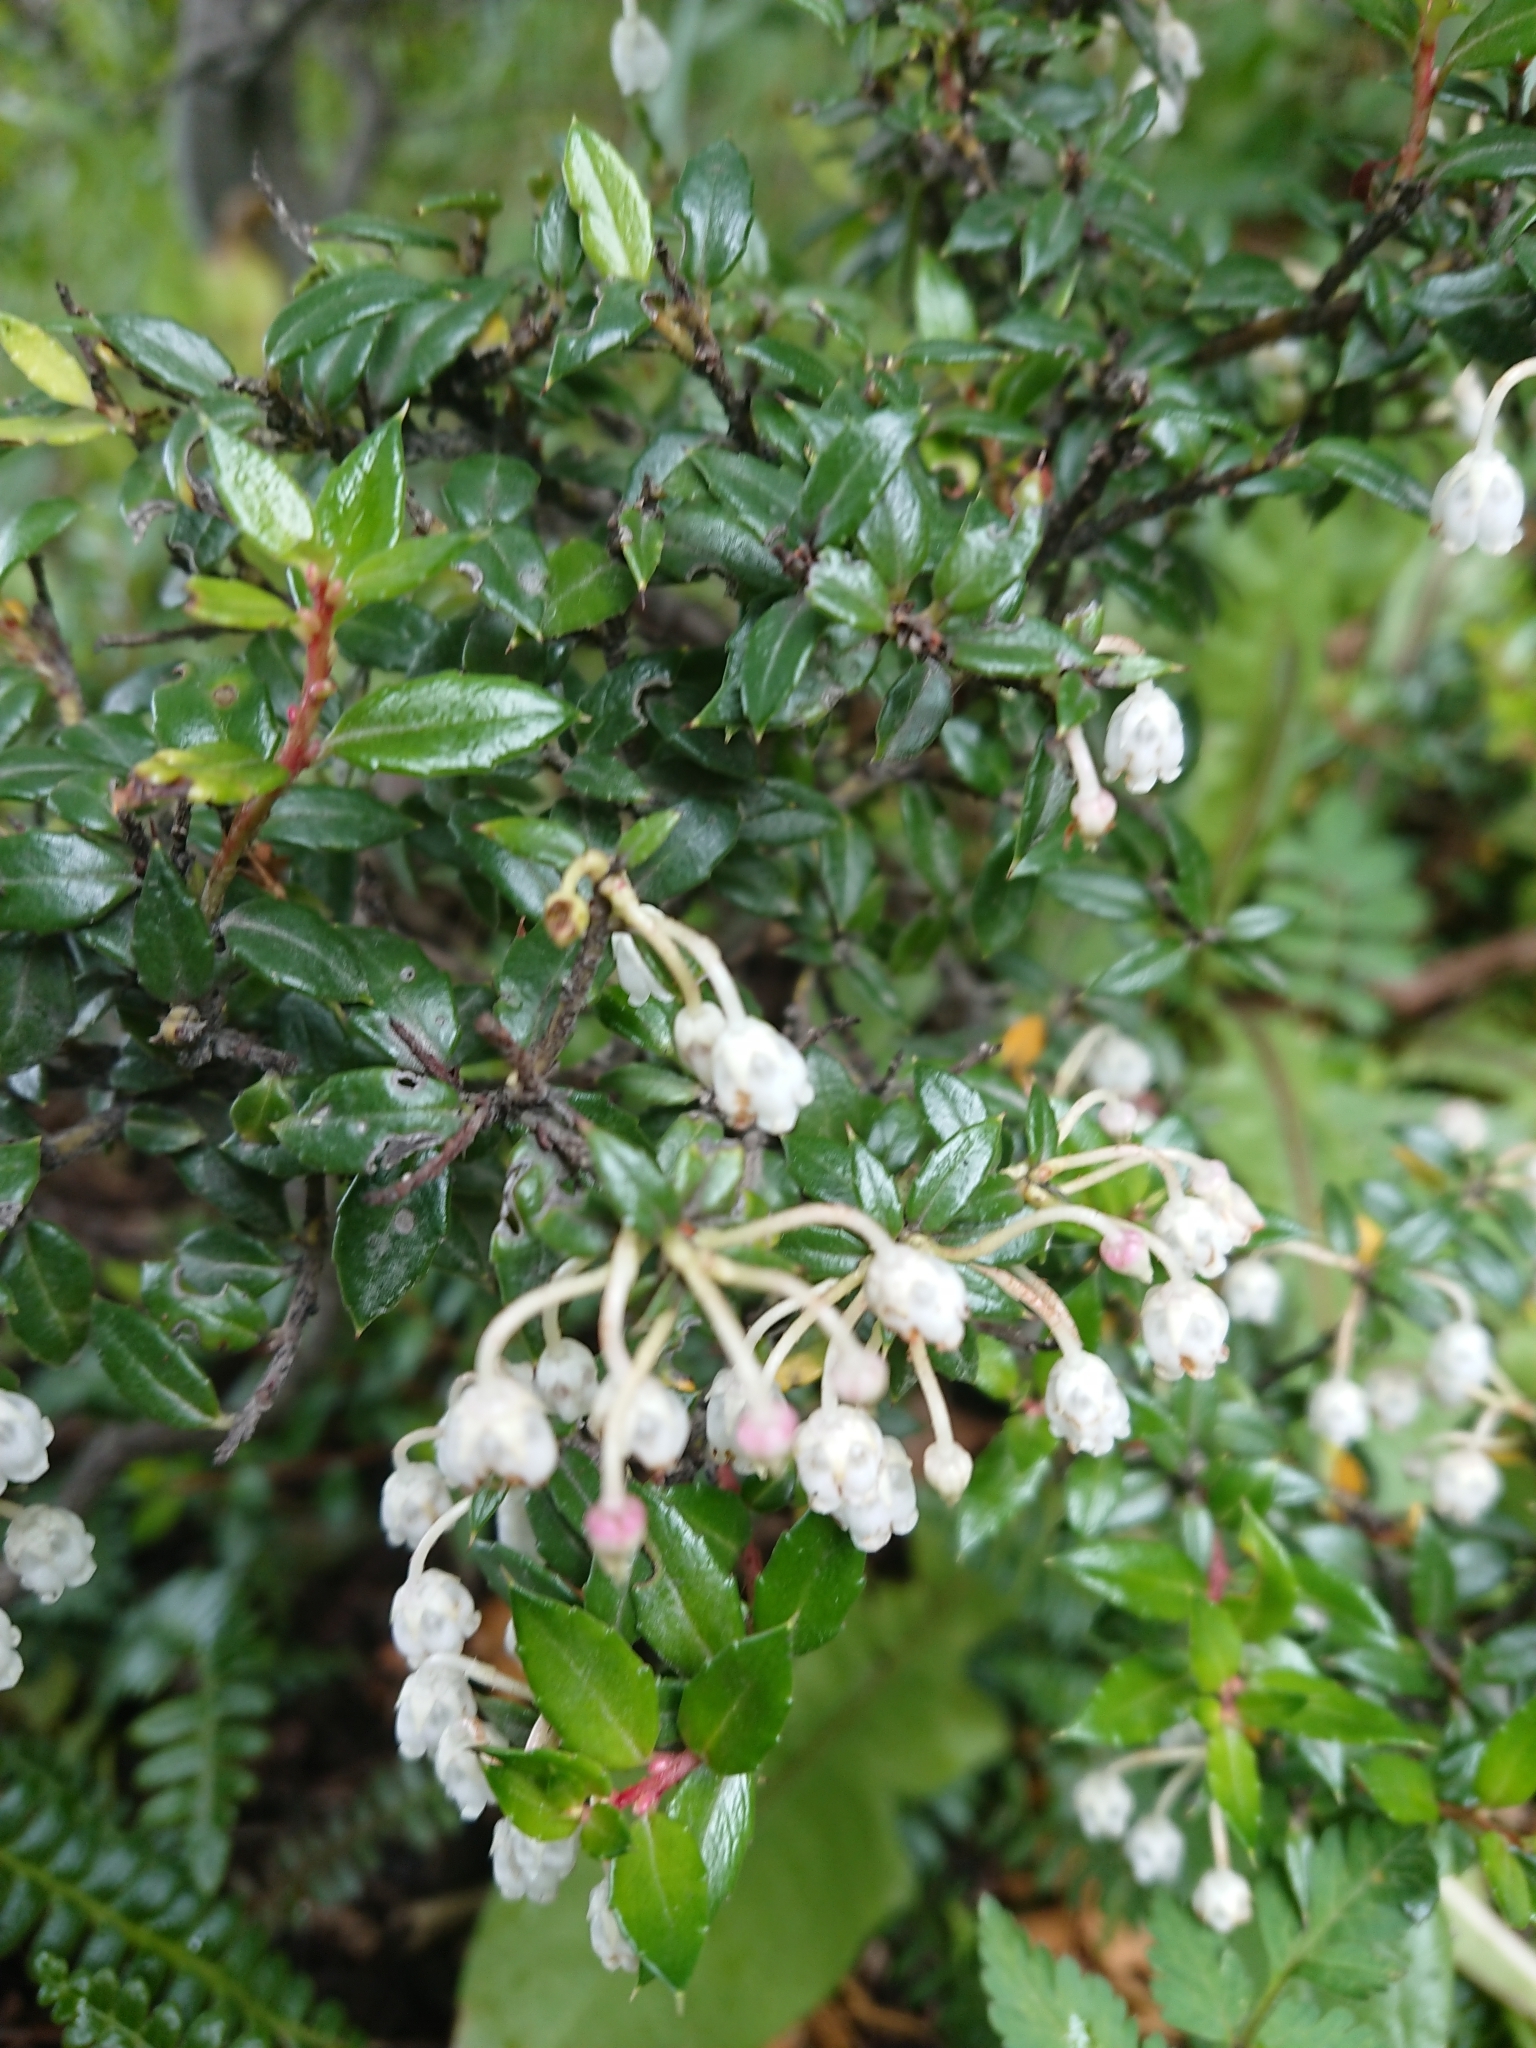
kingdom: Plantae
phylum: Tracheophyta
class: Magnoliopsida
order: Ericales
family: Ericaceae
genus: Gaultheria
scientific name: Gaultheria mucronata
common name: Prickly heath
